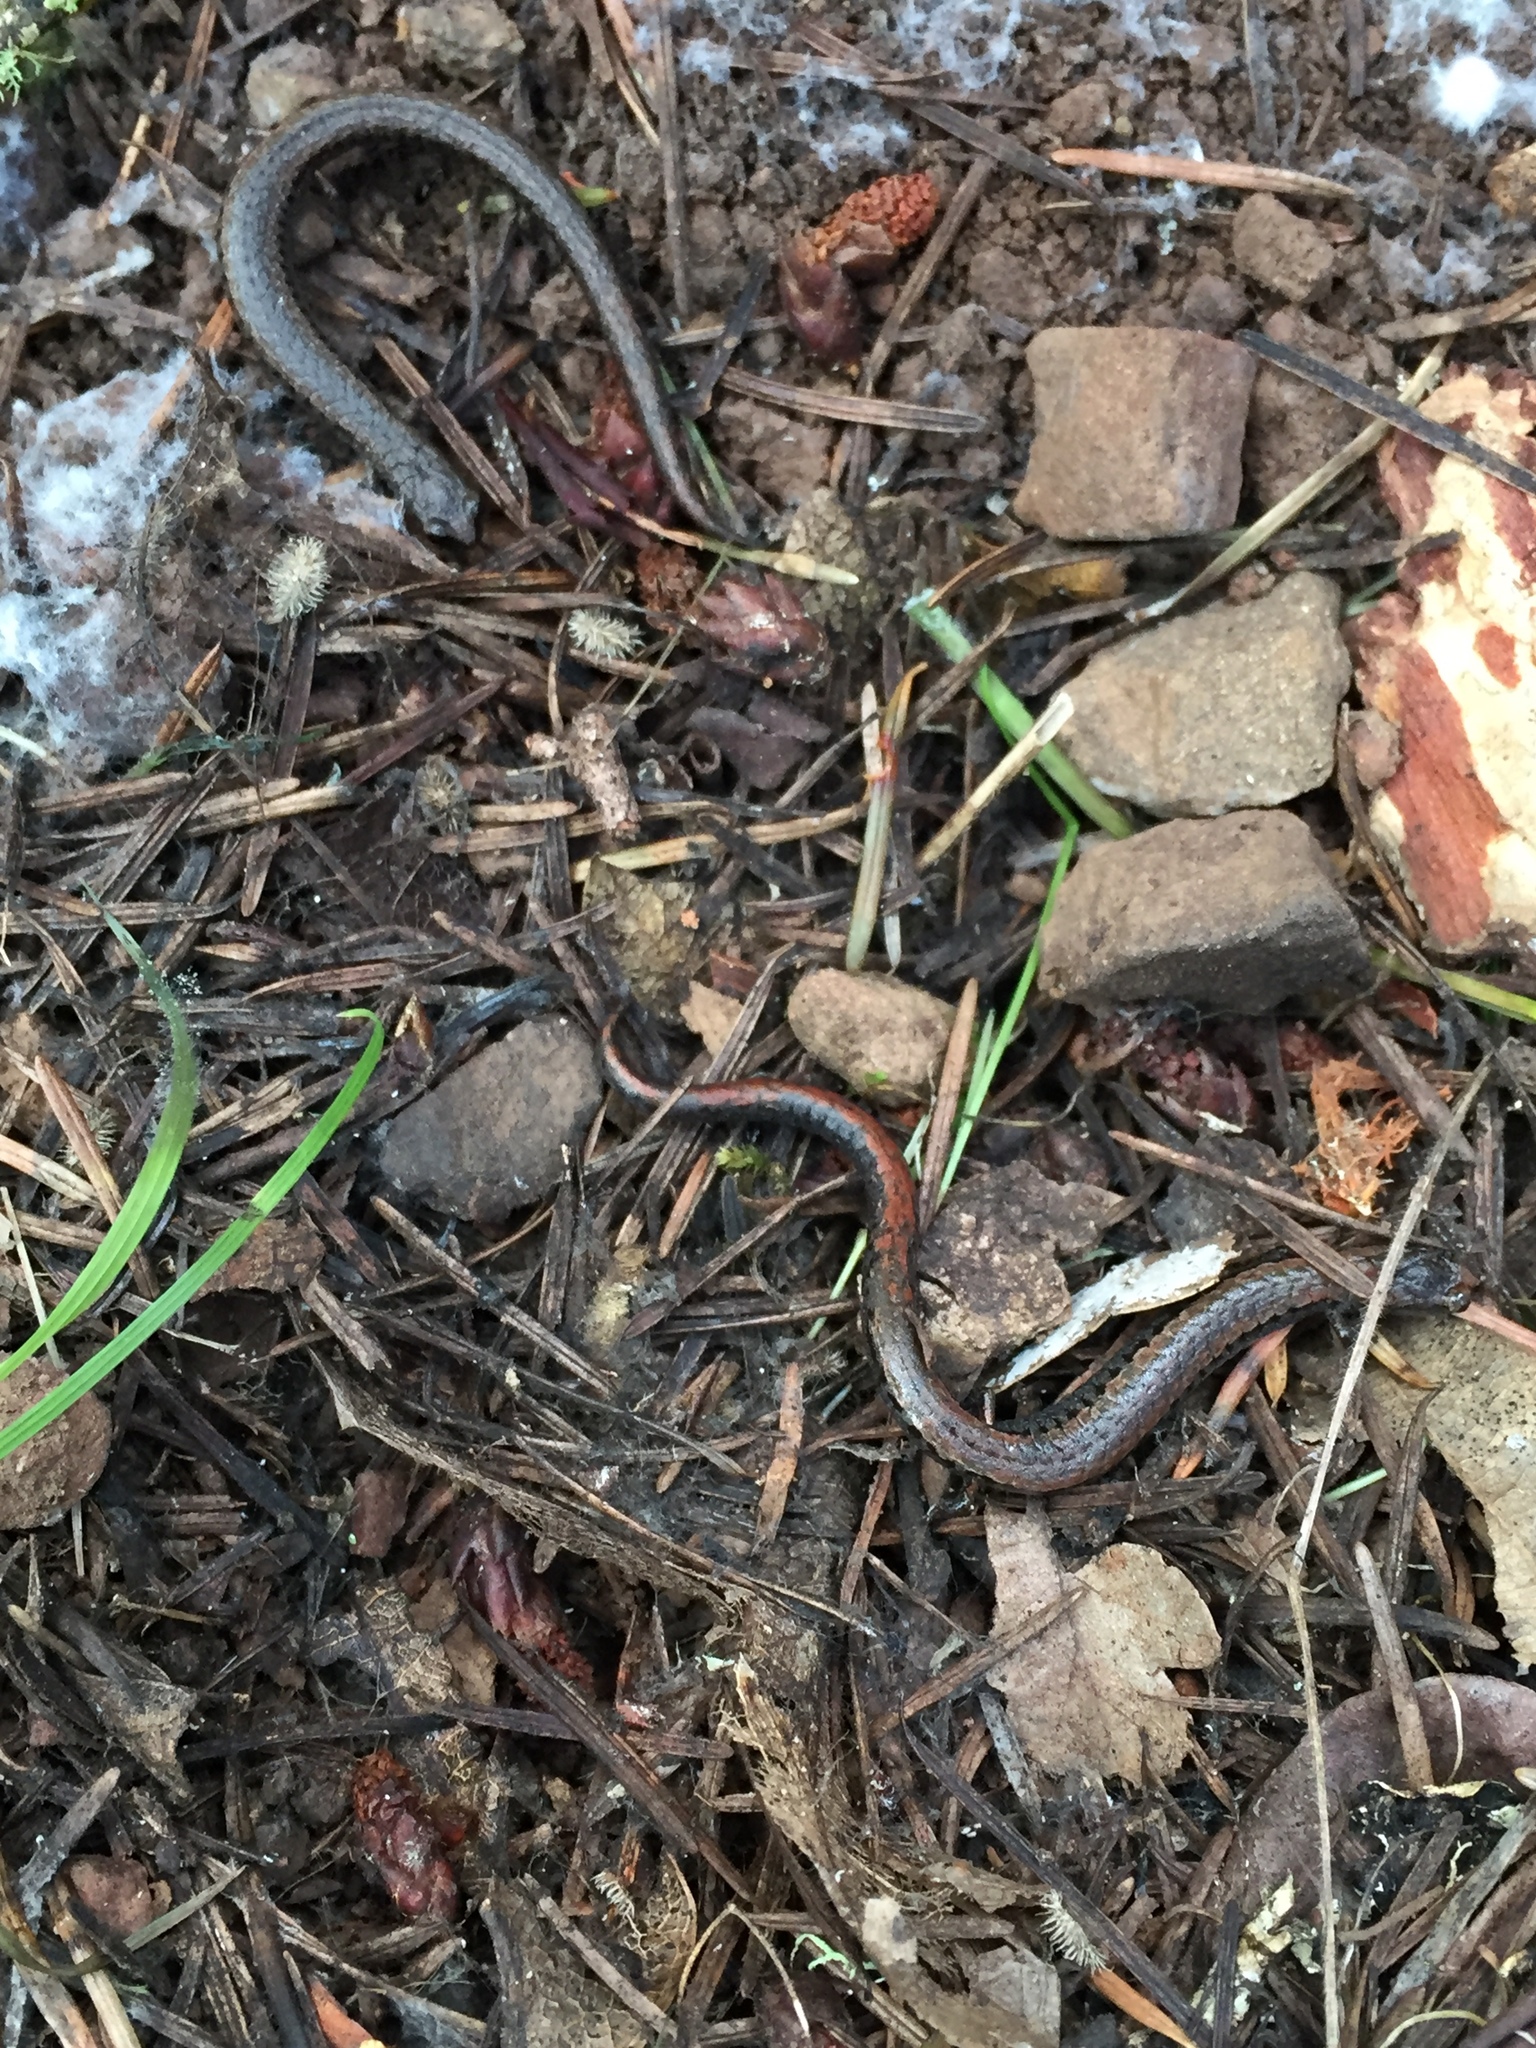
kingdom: Animalia
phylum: Chordata
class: Amphibia
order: Caudata
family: Plethodontidae
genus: Batrachoseps
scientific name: Batrachoseps attenuatus
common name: California slender salamander
